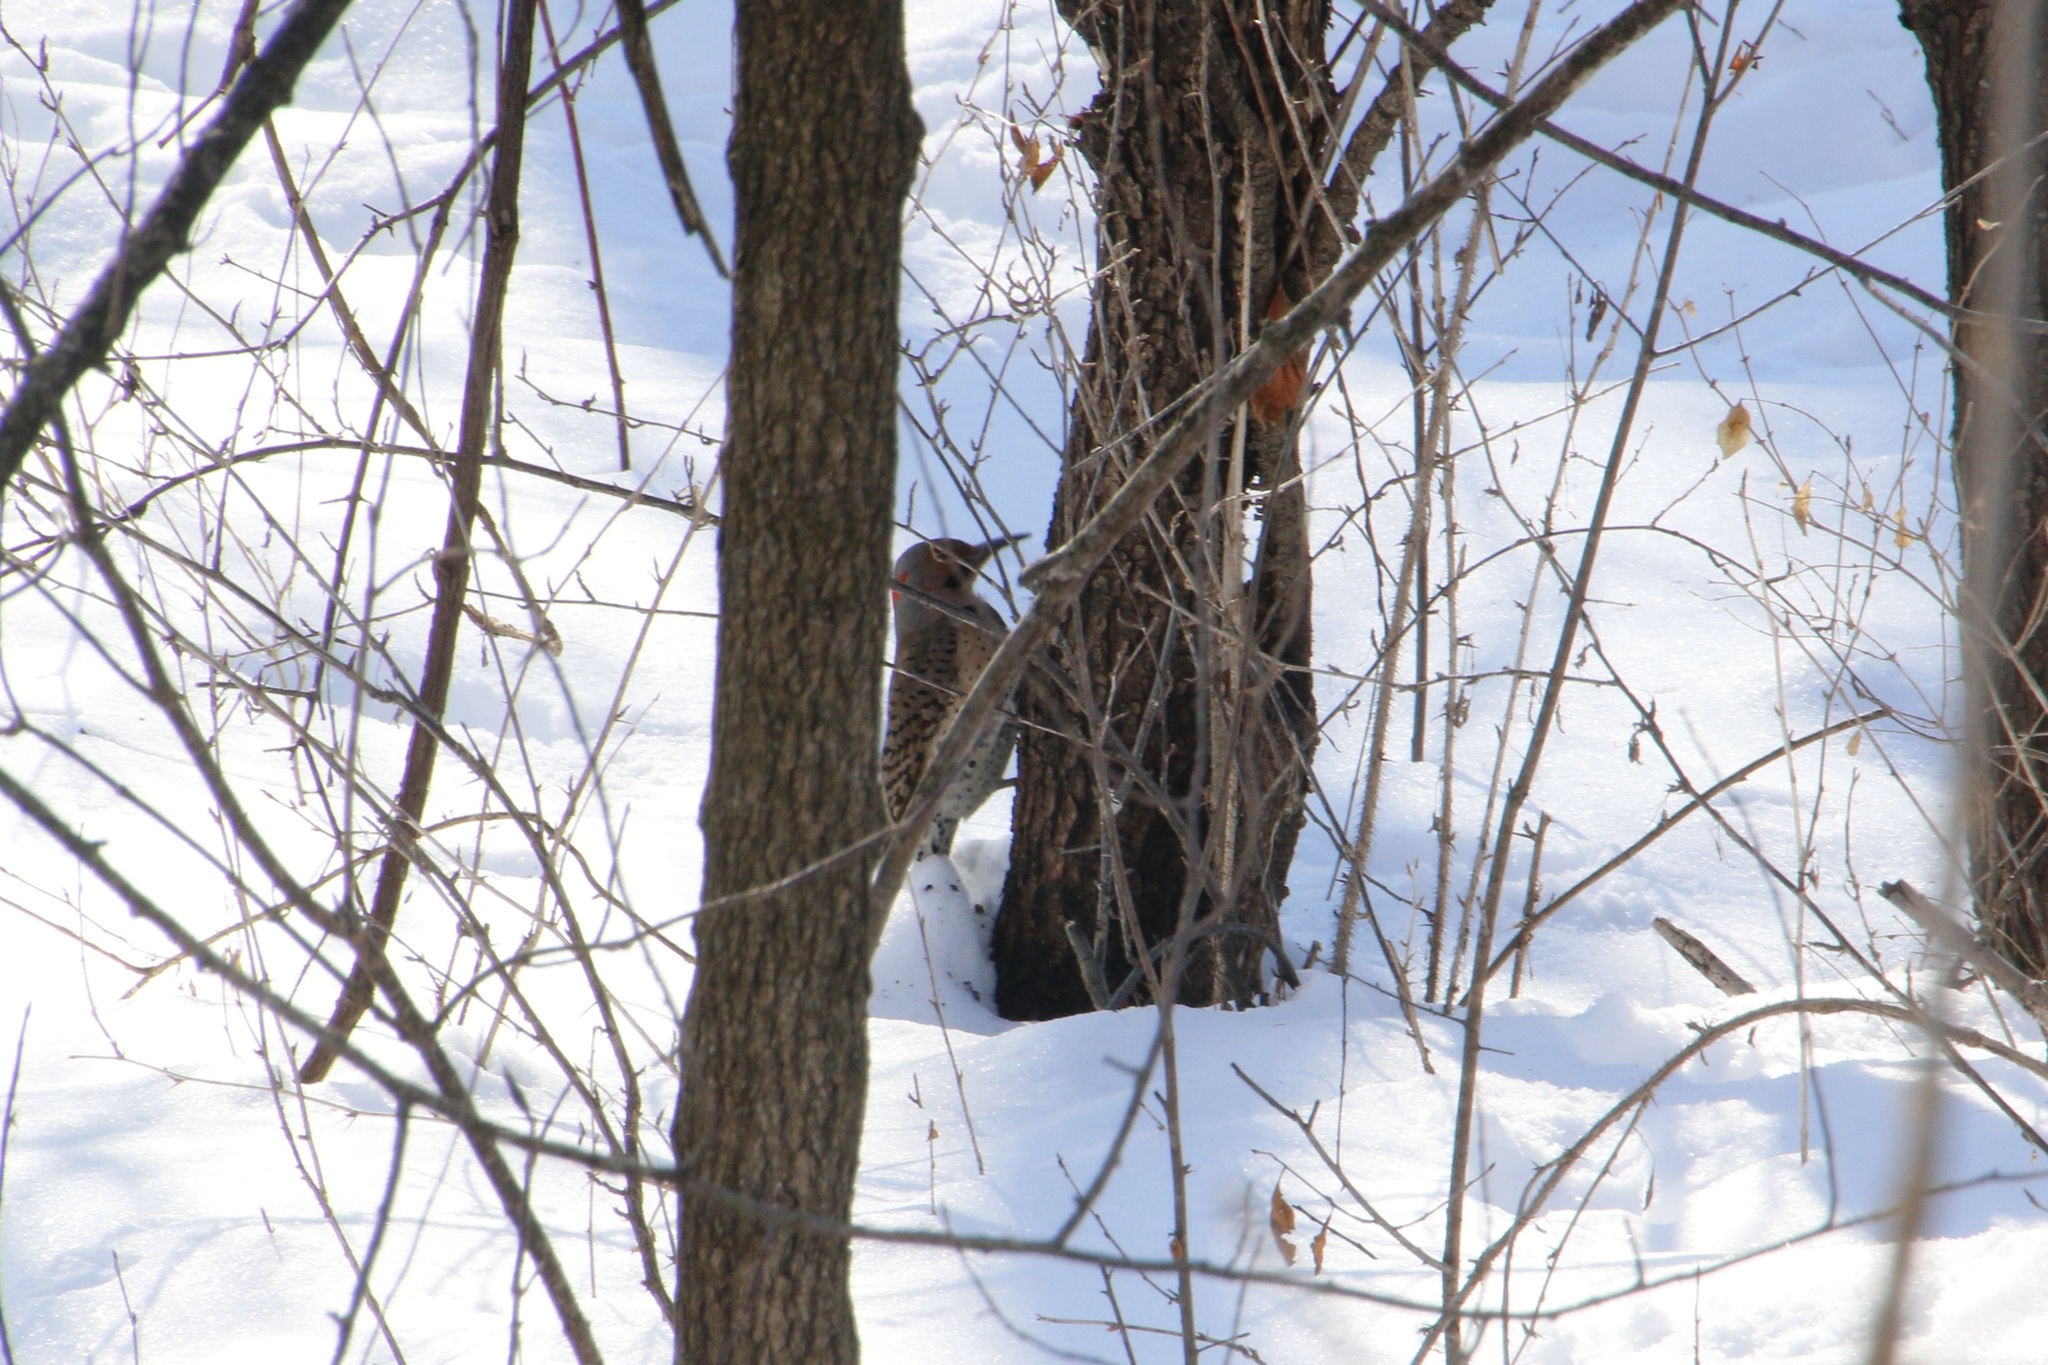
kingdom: Animalia
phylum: Chordata
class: Aves
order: Piciformes
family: Picidae
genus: Colaptes
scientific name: Colaptes auratus
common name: Northern flicker
